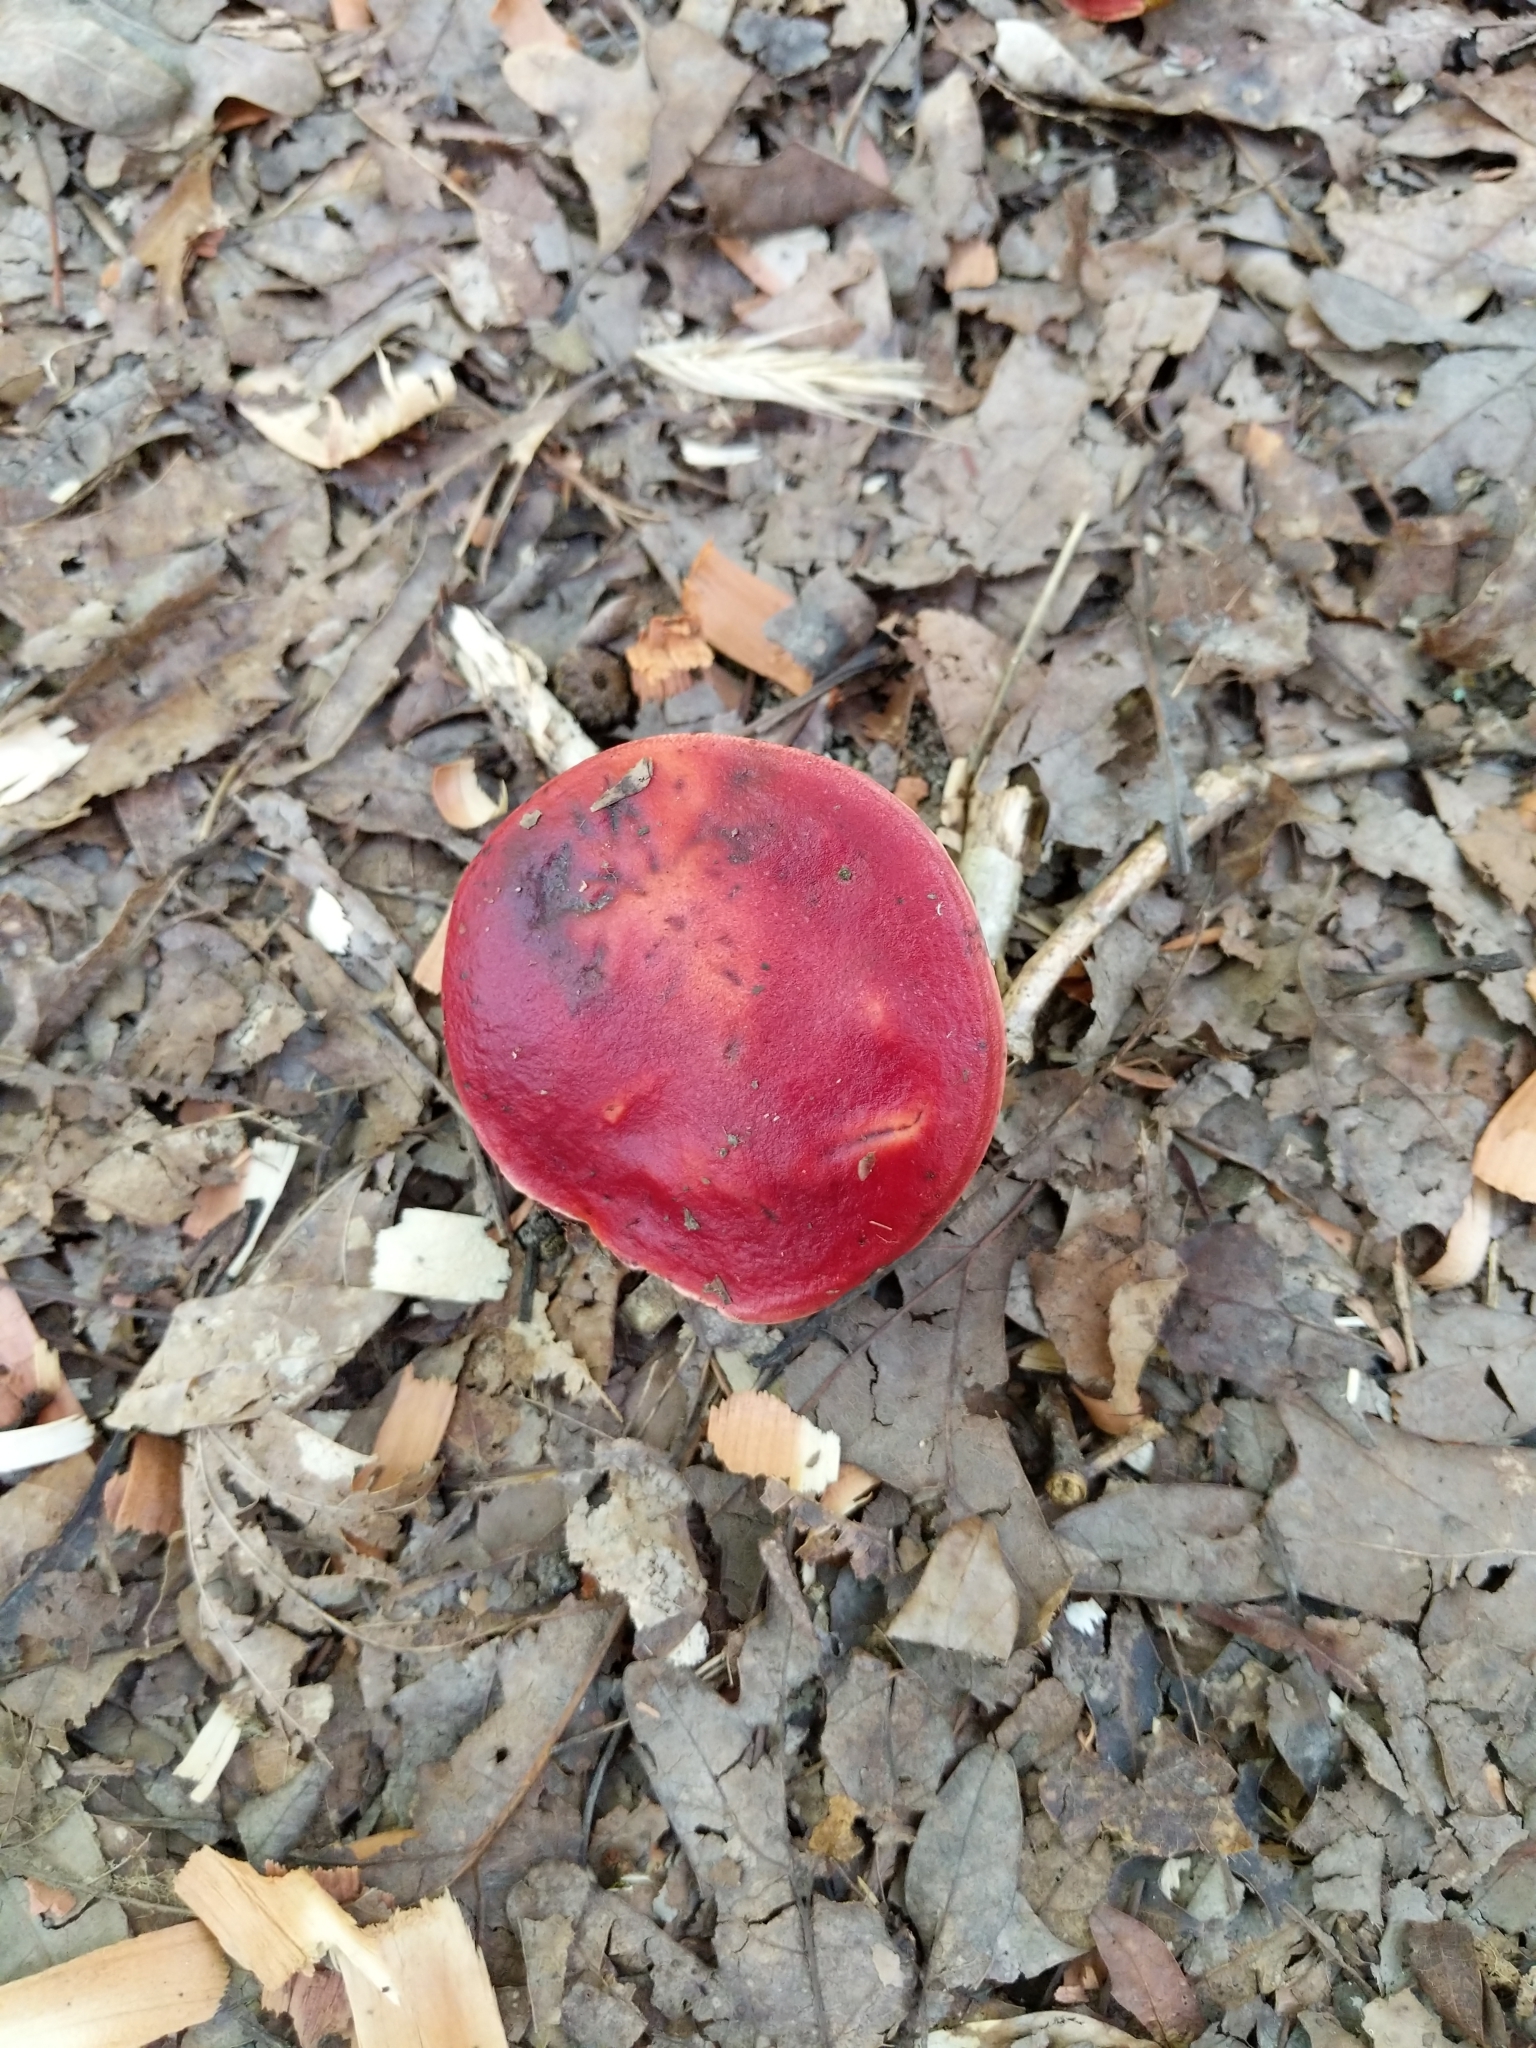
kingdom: Fungi
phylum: Basidiomycota
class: Agaricomycetes
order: Boletales
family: Boletaceae
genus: Butyriboletus
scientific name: Butyriboletus frostii
